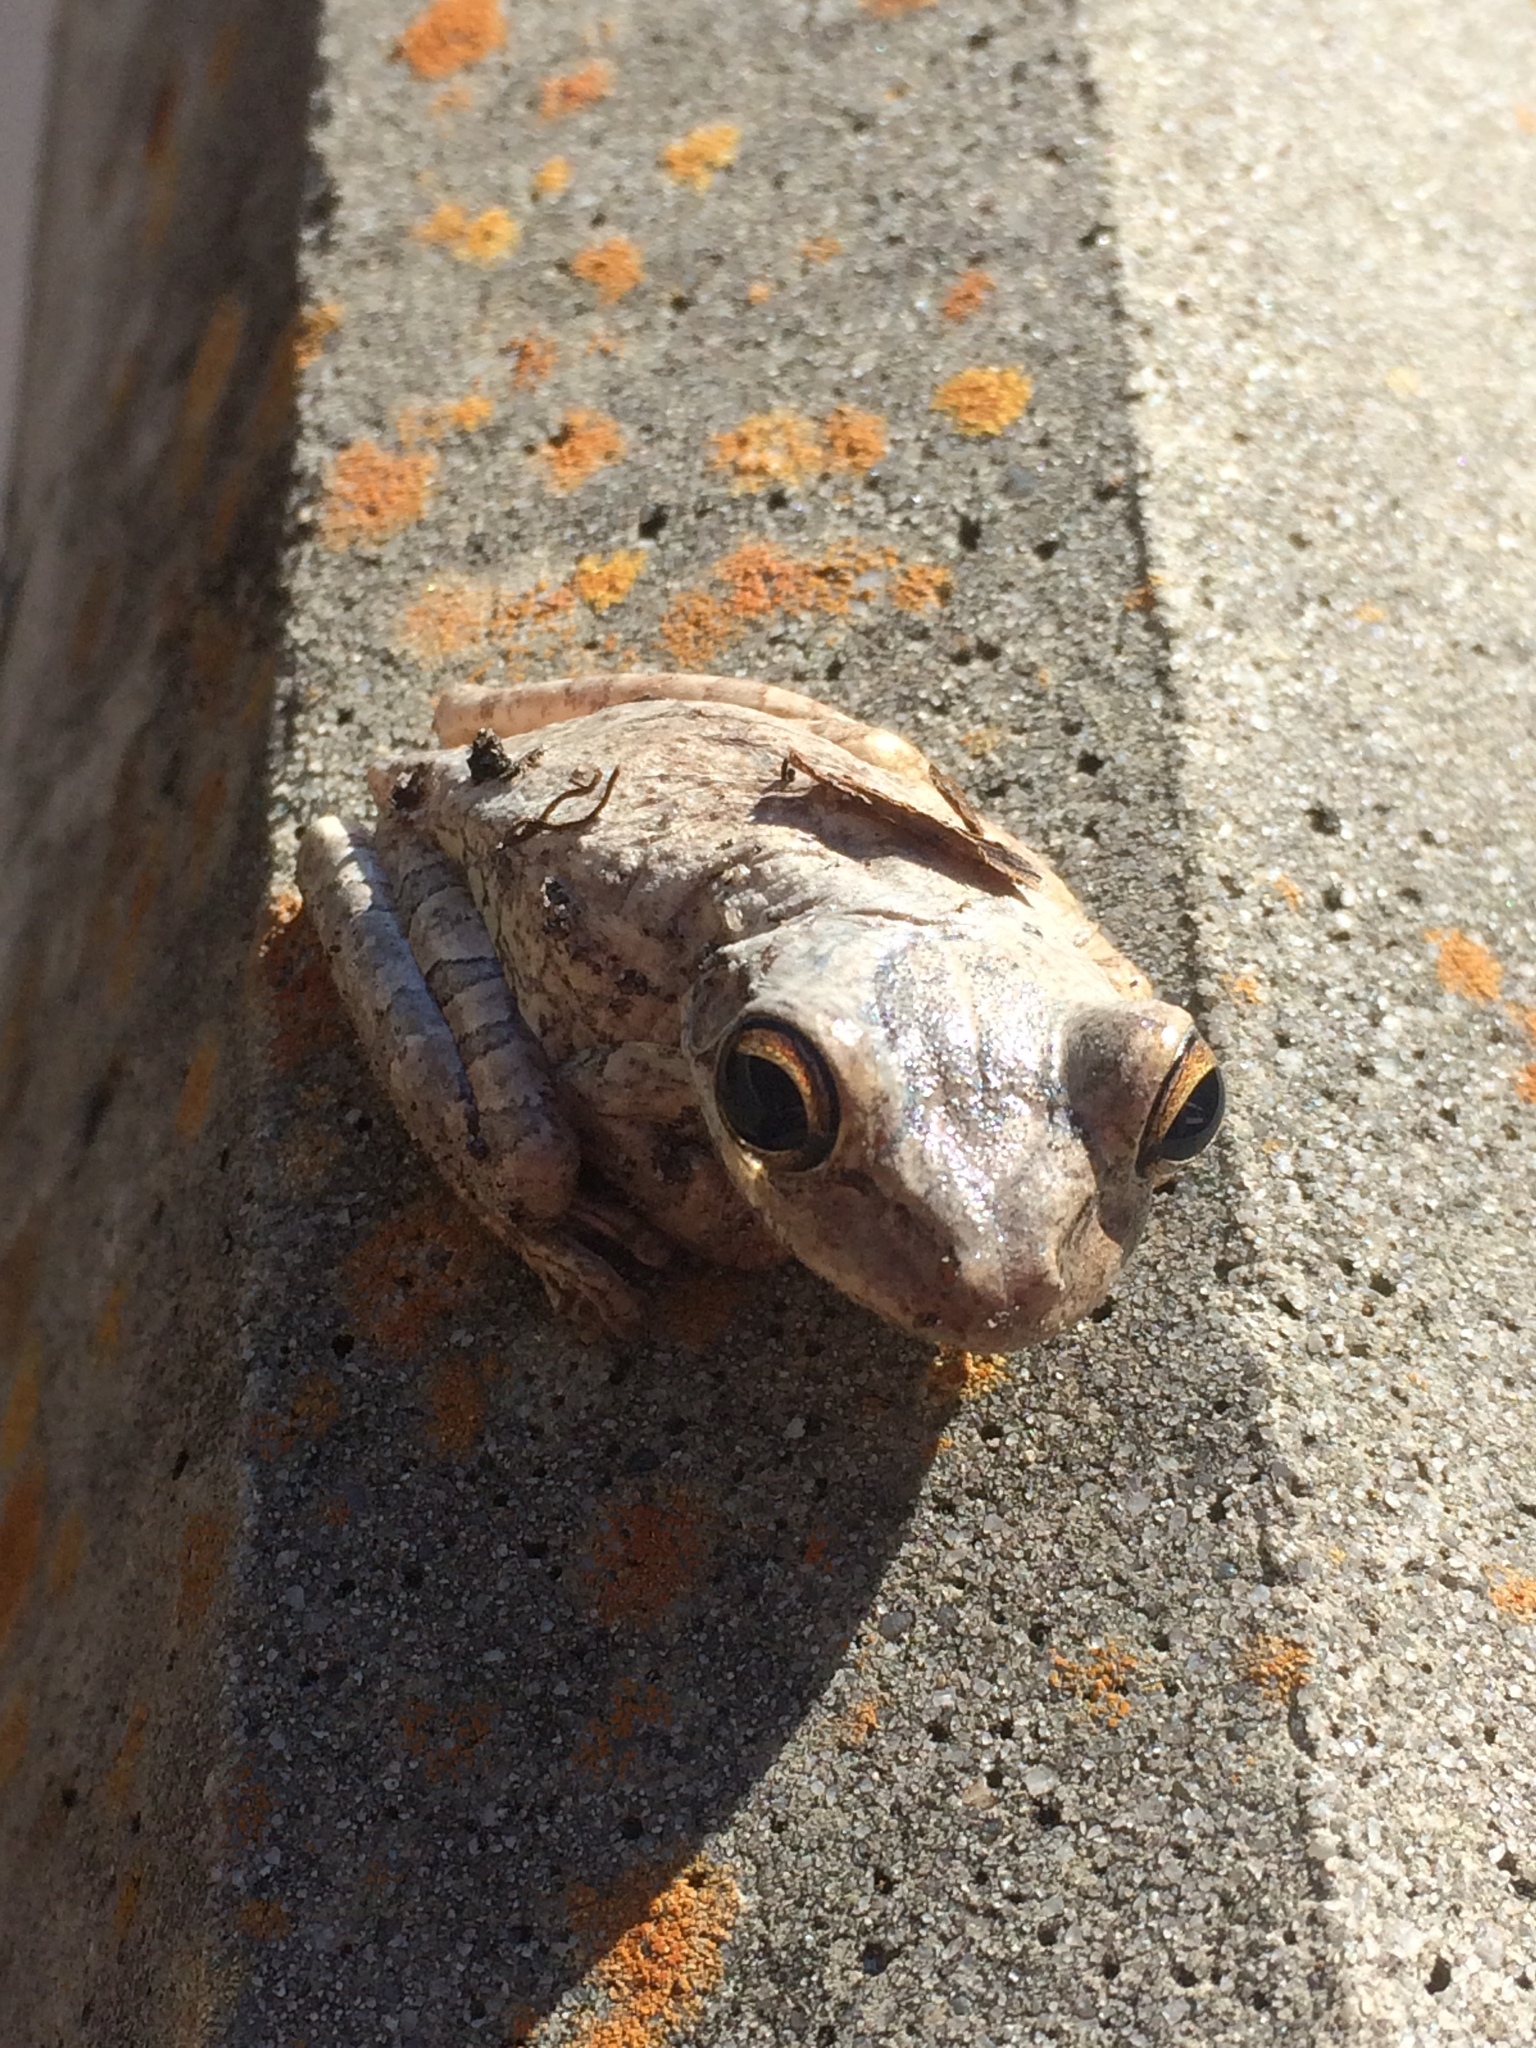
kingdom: Animalia
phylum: Chordata
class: Amphibia
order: Anura
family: Hylidae
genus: Osteopilus
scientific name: Osteopilus septentrionalis
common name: Cuban treefrog
